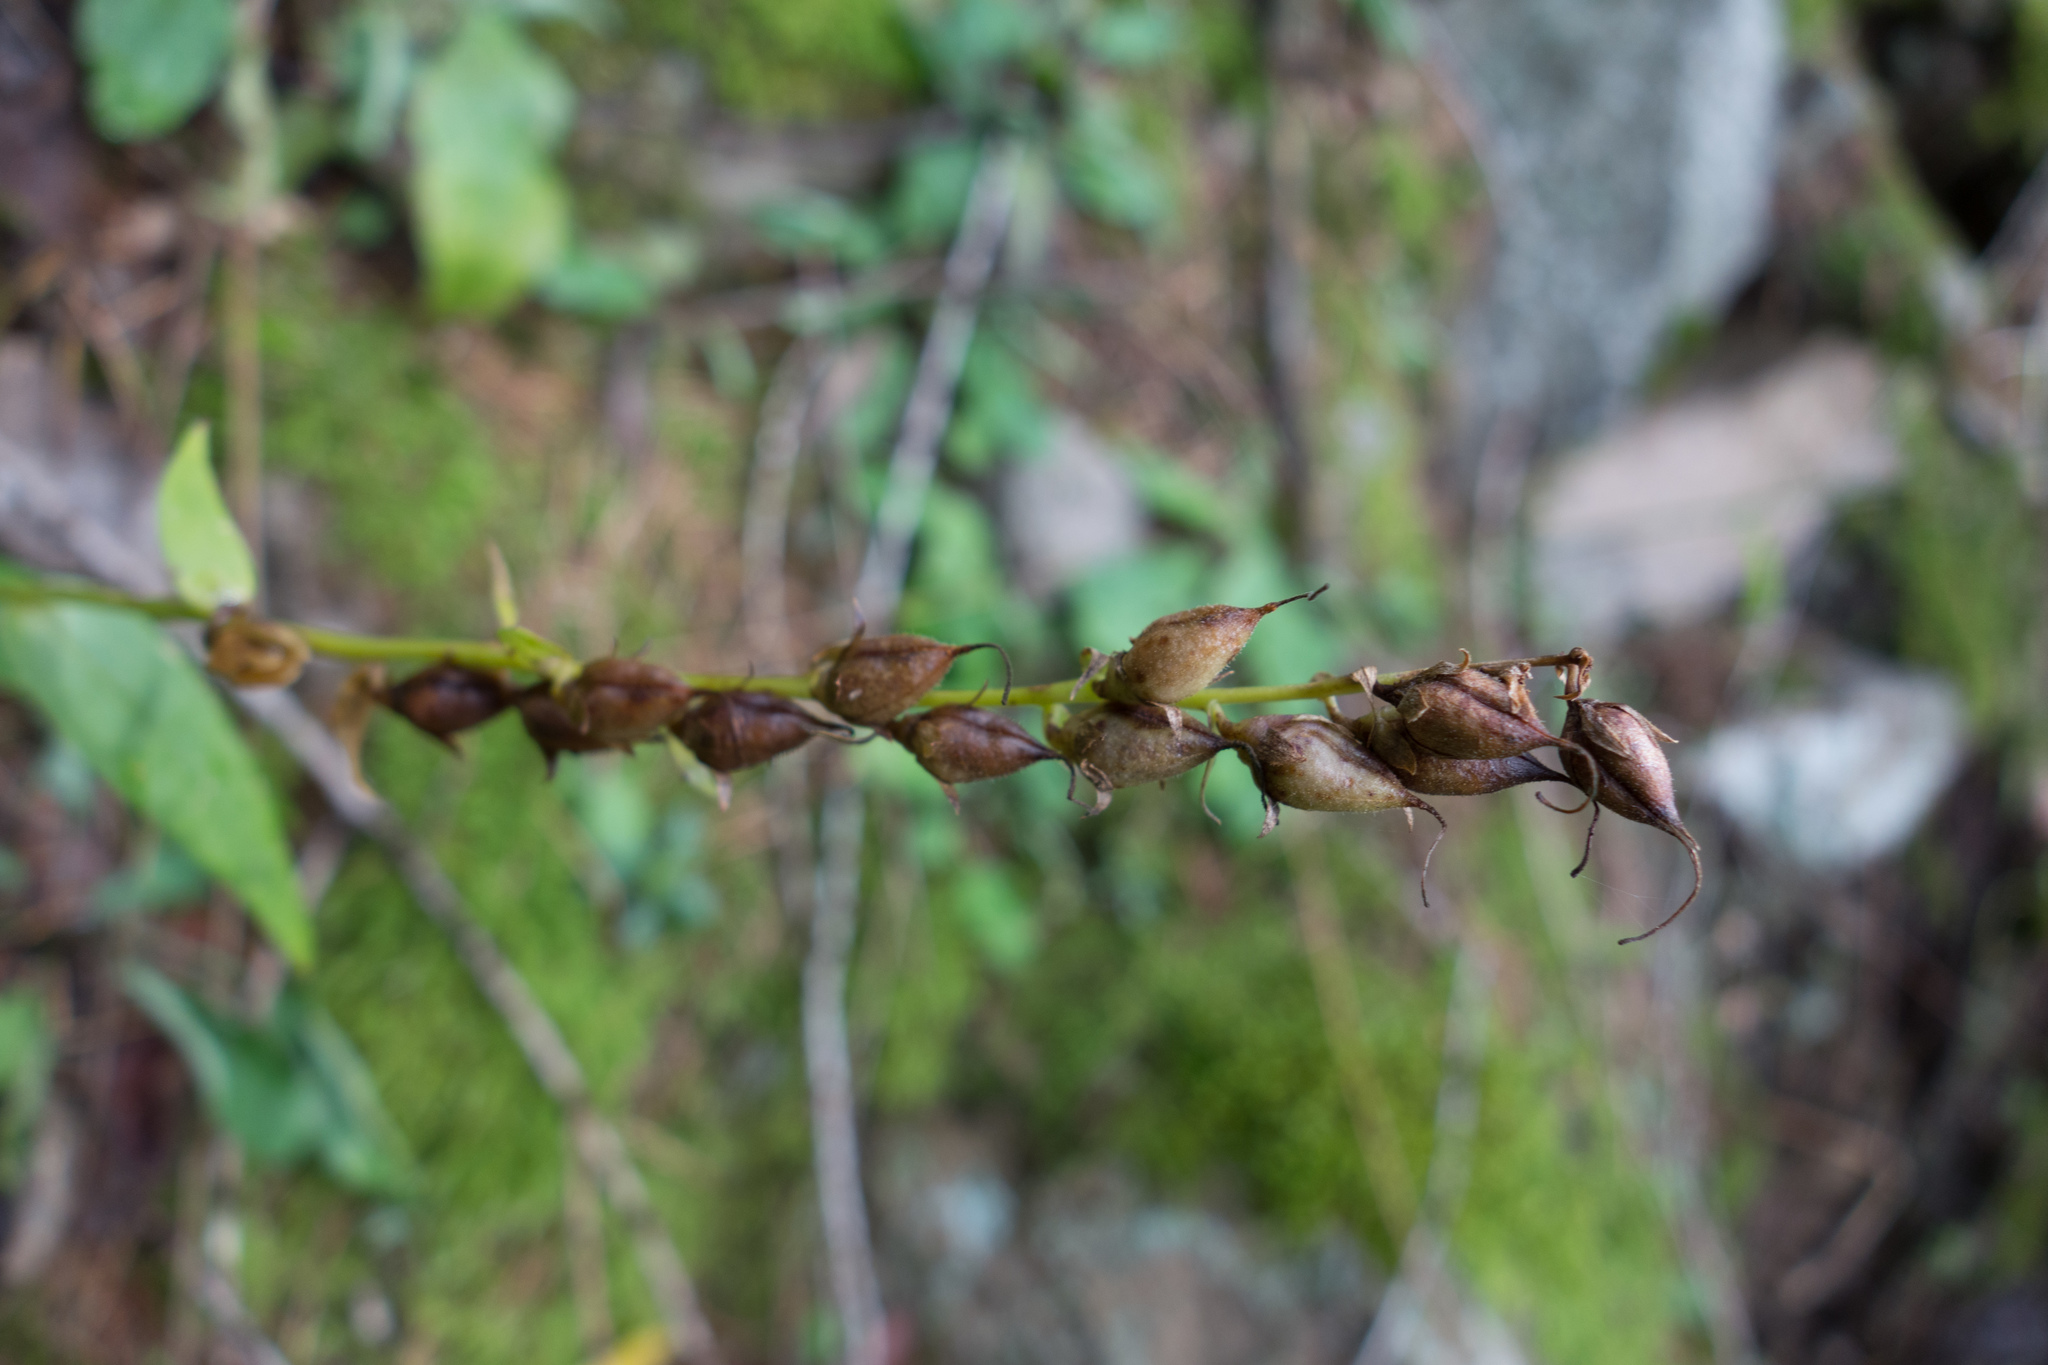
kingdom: Plantae
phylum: Tracheophyta
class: Magnoliopsida
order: Lamiales
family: Plantaginaceae
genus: Digitalis
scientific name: Digitalis lutea
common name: Straw foxglove
